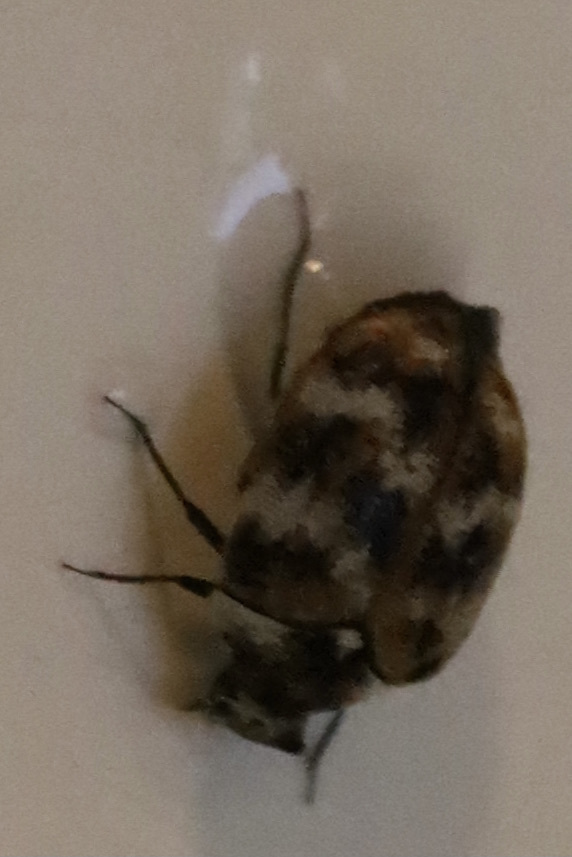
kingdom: Animalia
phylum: Arthropoda
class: Insecta
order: Coleoptera
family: Dermestidae
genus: Anthrenus
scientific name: Anthrenus verbasci
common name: Varied carpet beetle
